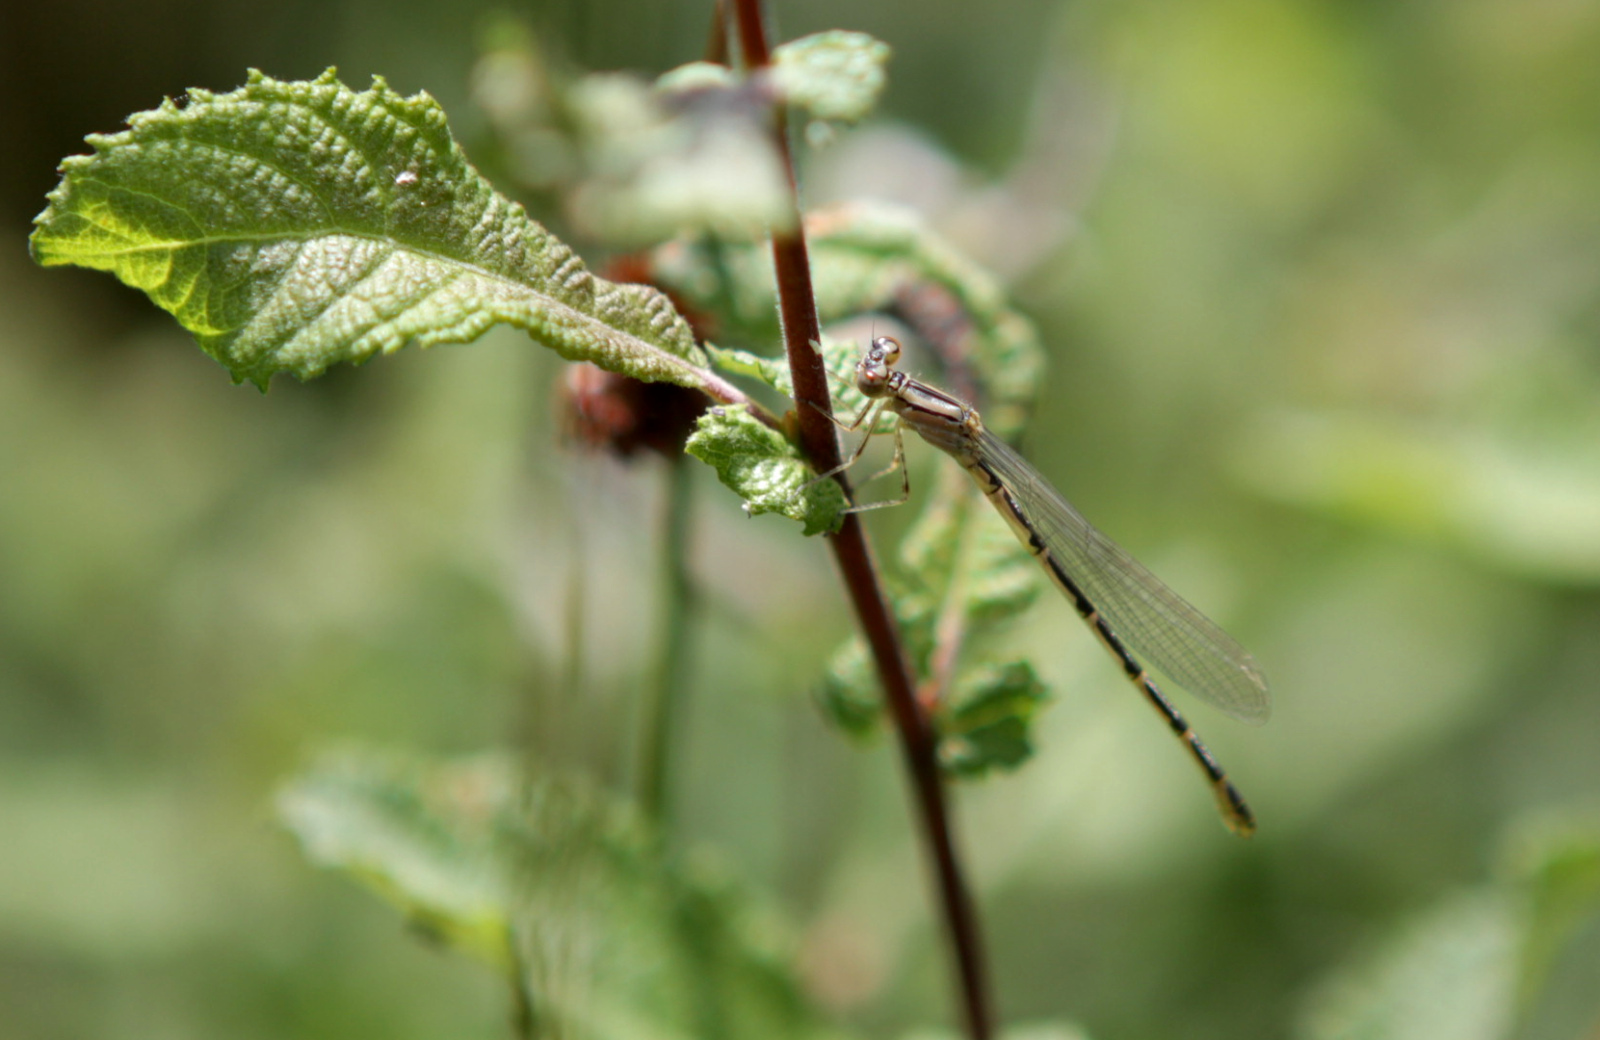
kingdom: Animalia
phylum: Arthropoda
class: Insecta
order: Odonata
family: Coenagrionidae
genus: Enallagma
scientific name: Enallagma cyathigerum
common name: Common blue damselfly
